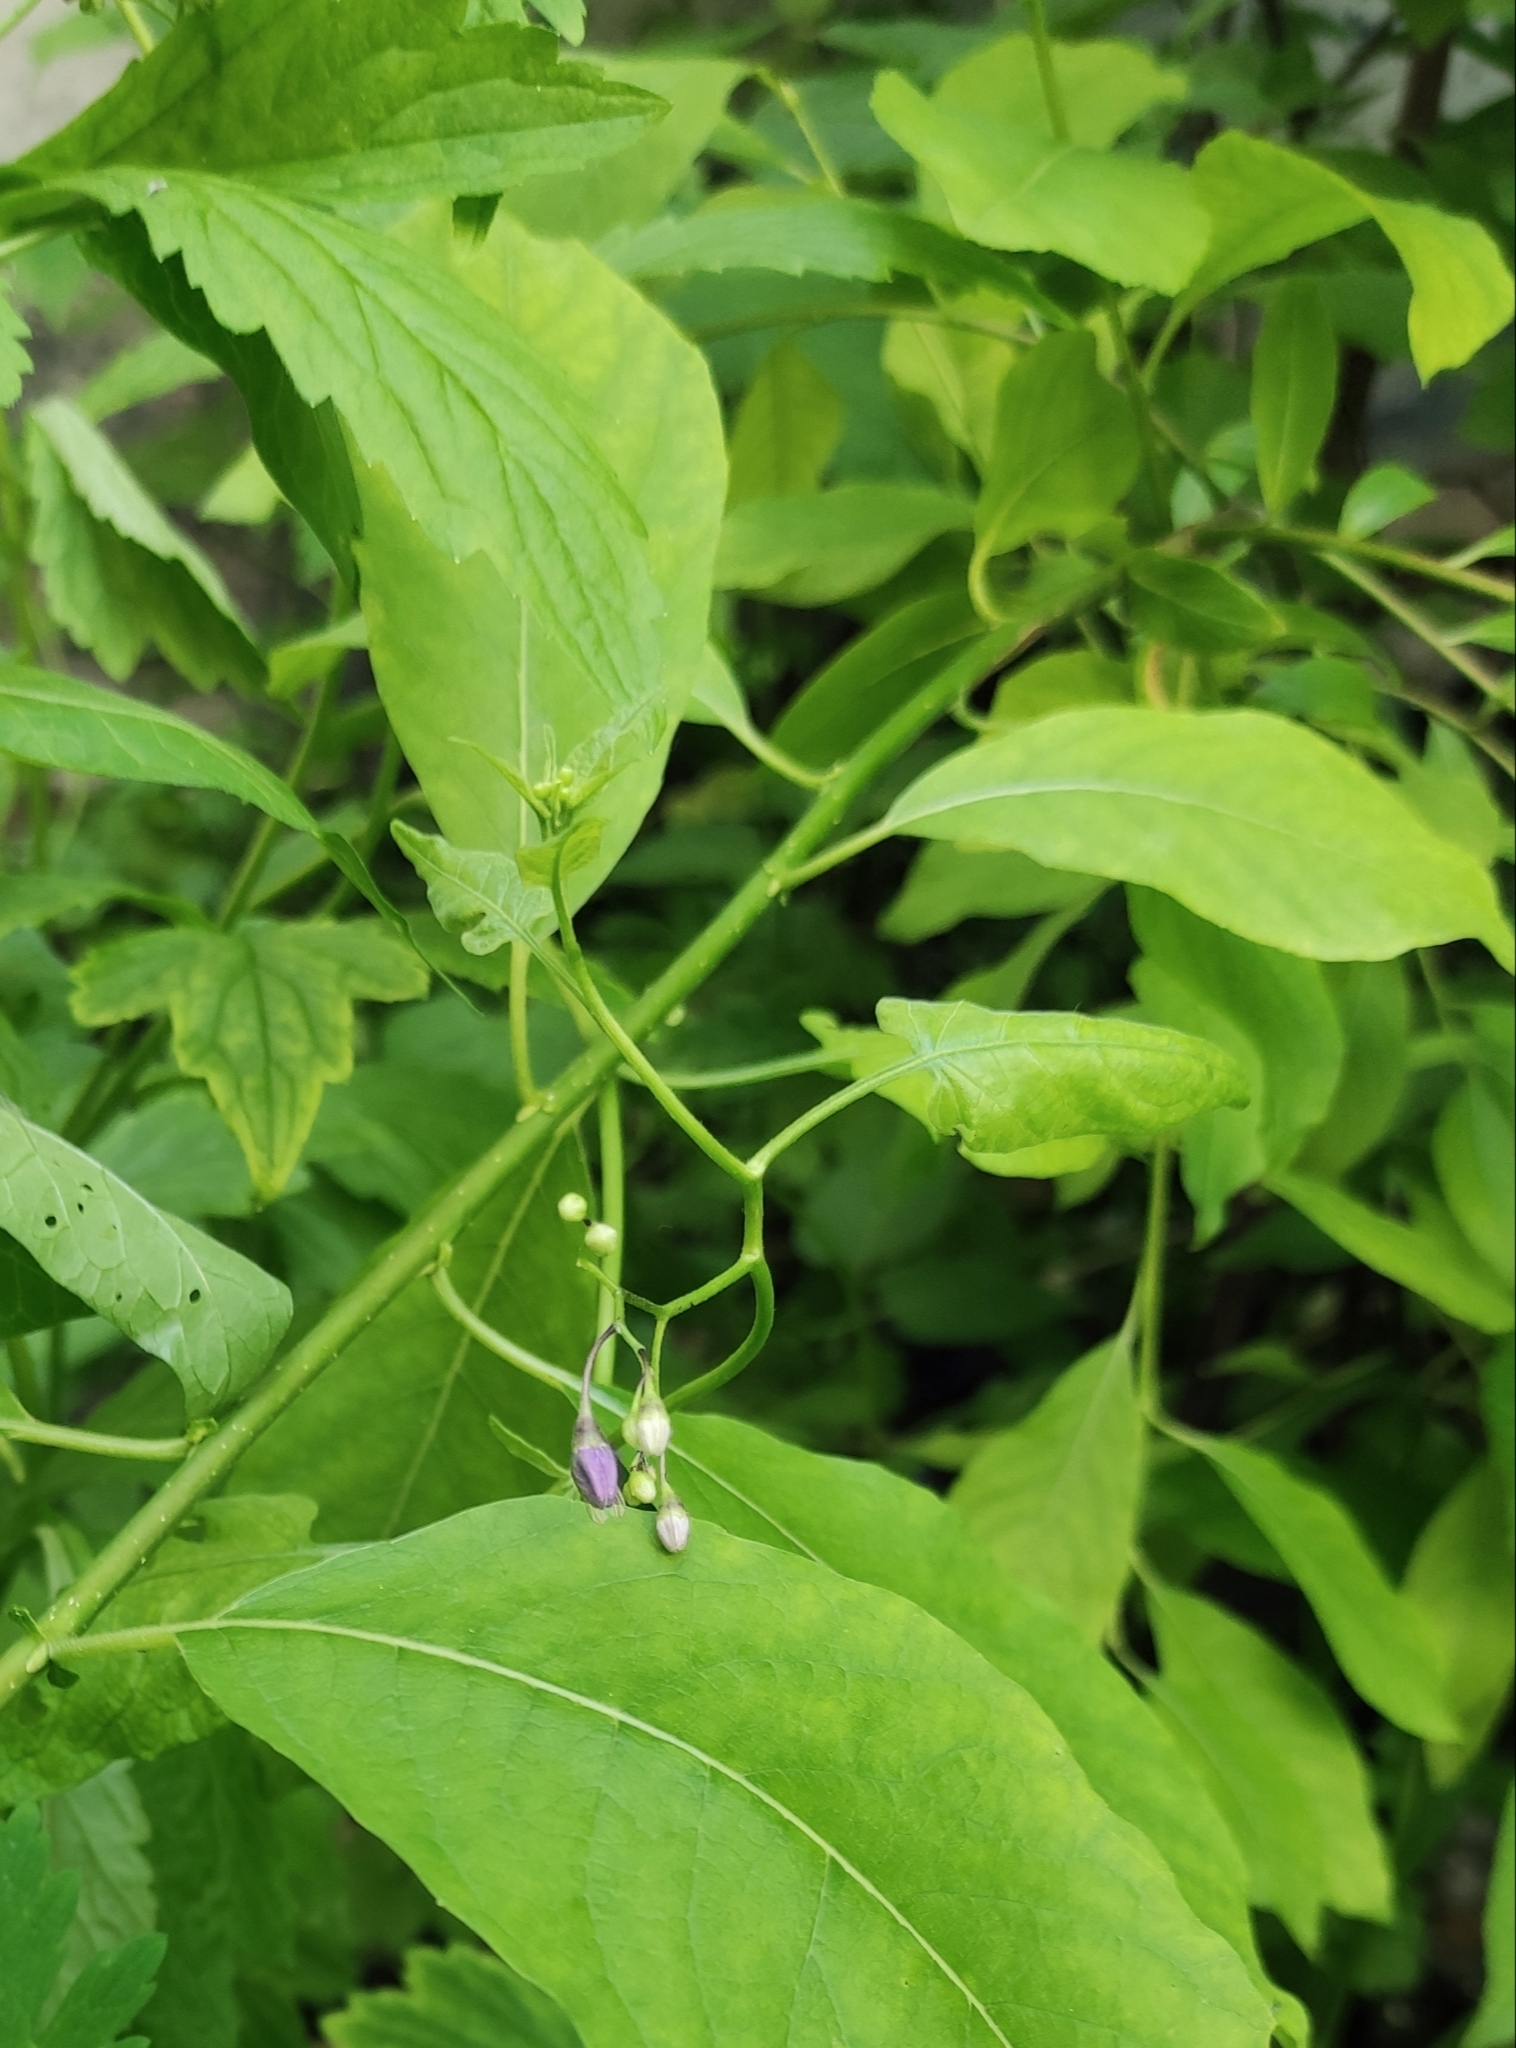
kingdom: Plantae
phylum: Tracheophyta
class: Magnoliopsida
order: Solanales
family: Solanaceae
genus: Solanum
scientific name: Solanum dulcamara
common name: Climbing nightshade
